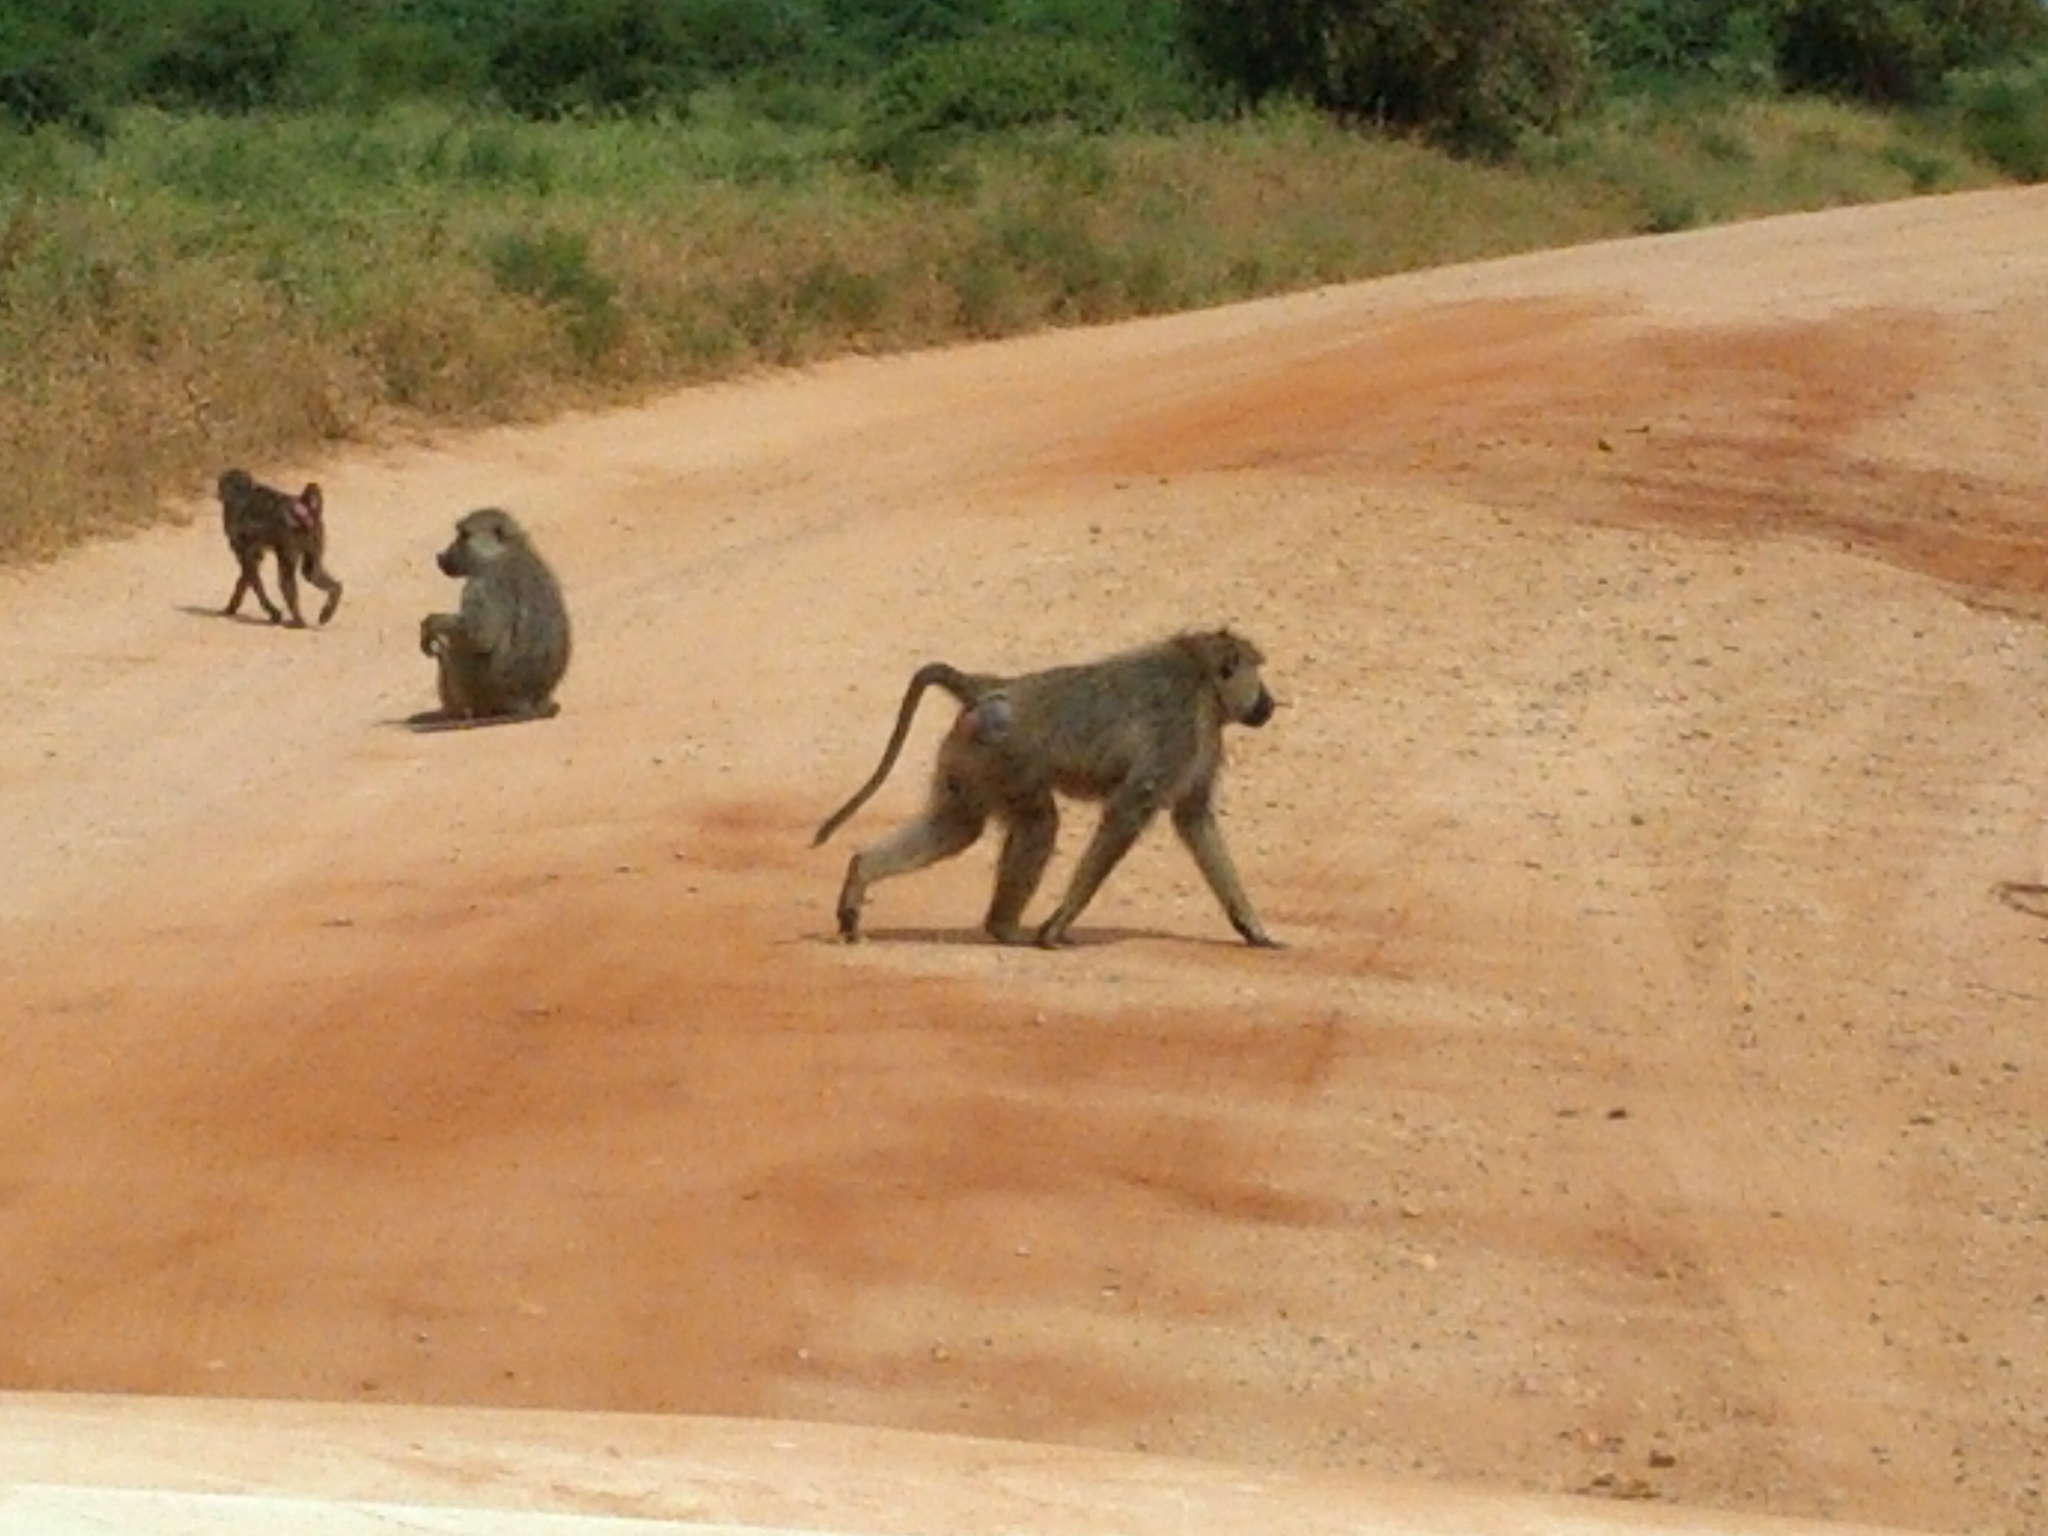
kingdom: Animalia
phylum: Chordata
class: Mammalia
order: Primates
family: Cercopithecidae
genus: Papio
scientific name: Papio cynocephalus
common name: Yellow baboon
